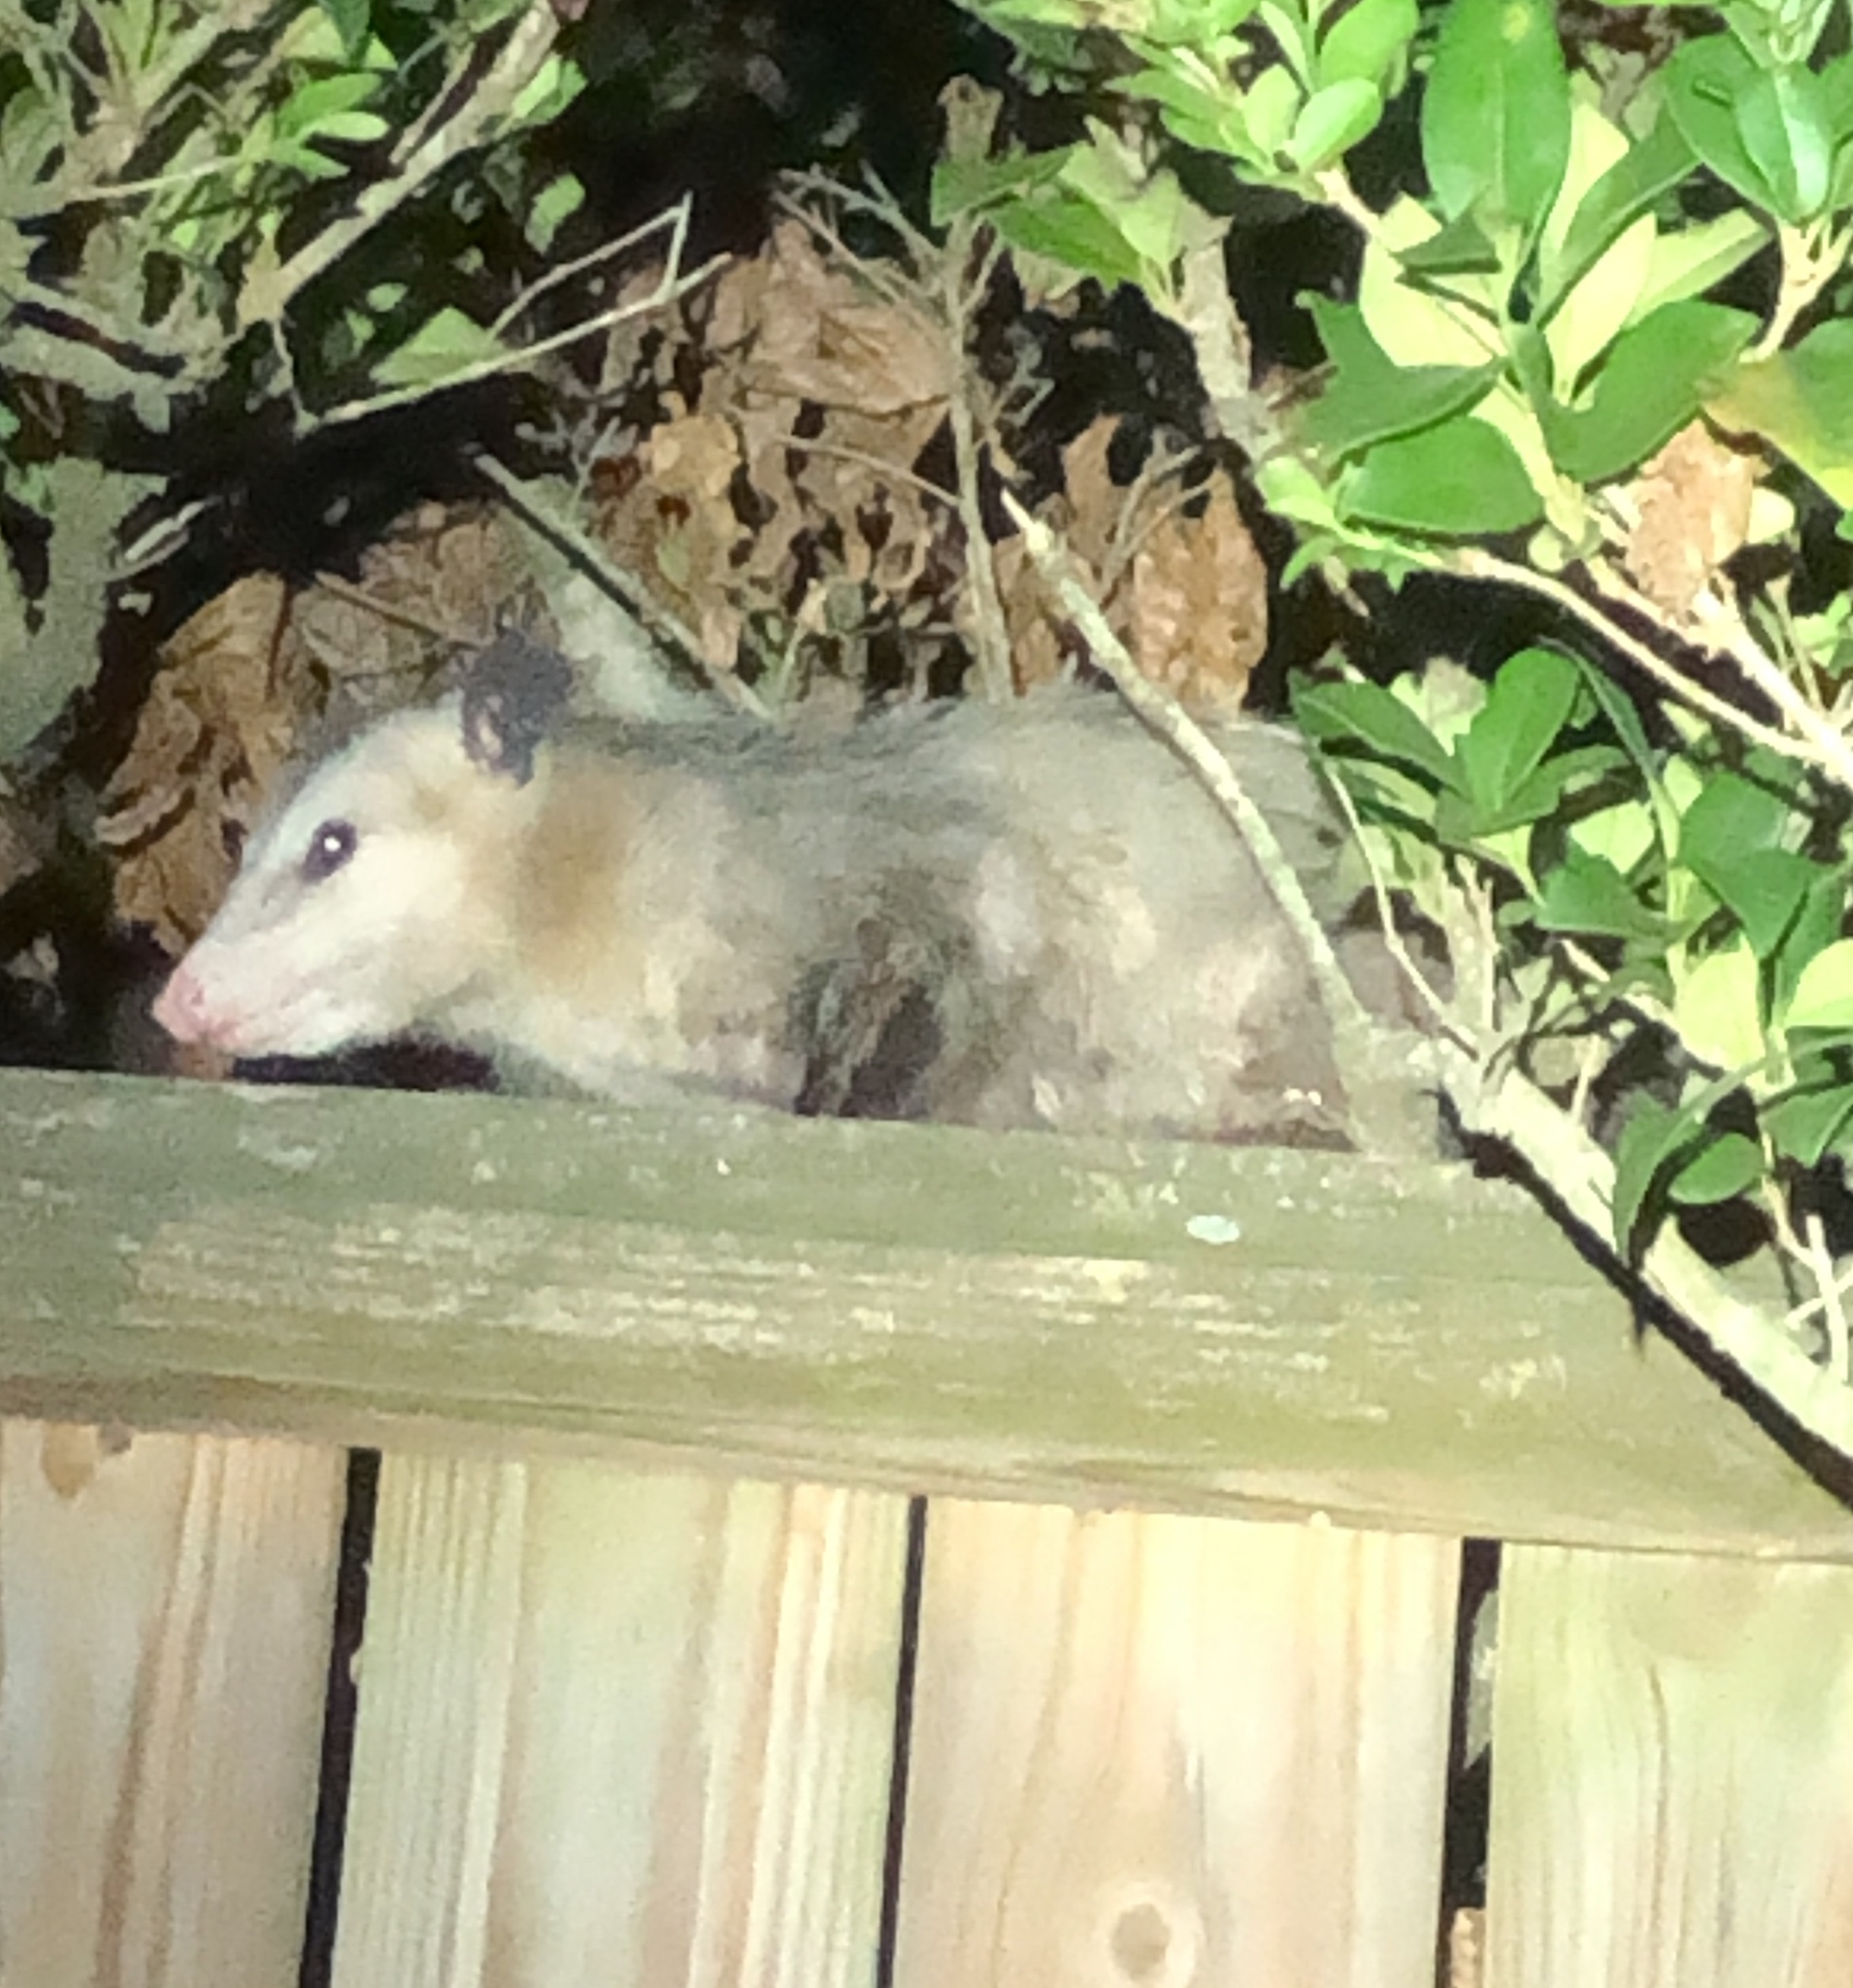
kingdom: Animalia
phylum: Chordata
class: Mammalia
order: Didelphimorphia
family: Didelphidae
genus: Didelphis
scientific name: Didelphis virginiana
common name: Virginia opossum
